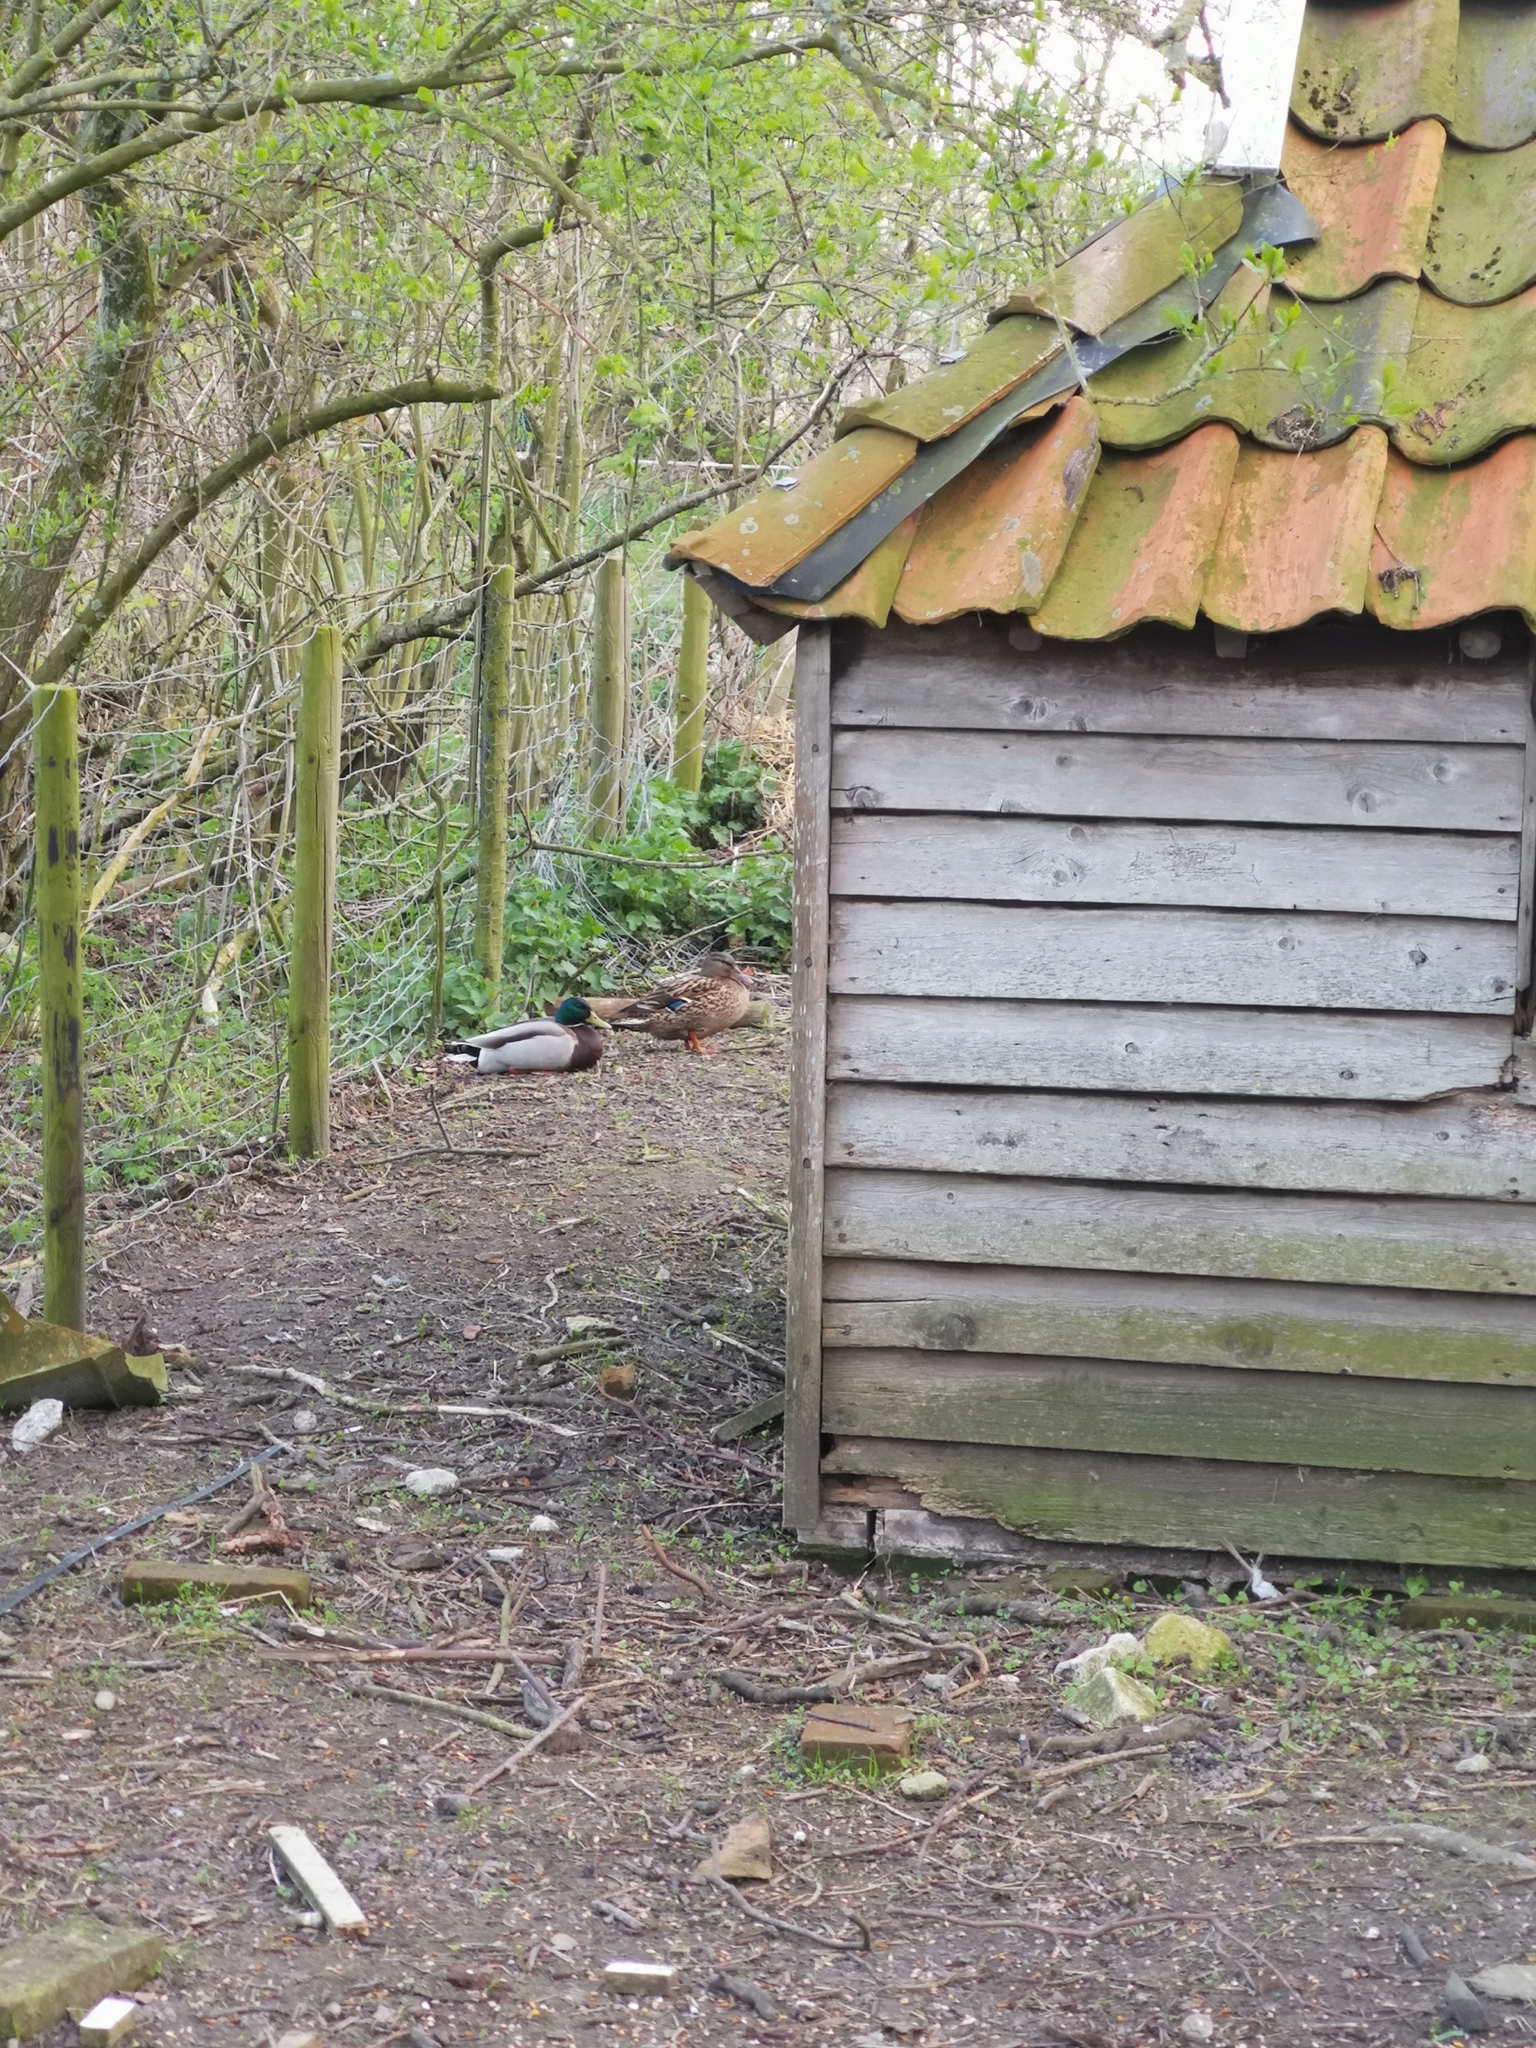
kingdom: Animalia
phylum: Chordata
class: Aves
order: Anseriformes
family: Anatidae
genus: Anas
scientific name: Anas platyrhynchos
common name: Mallard
